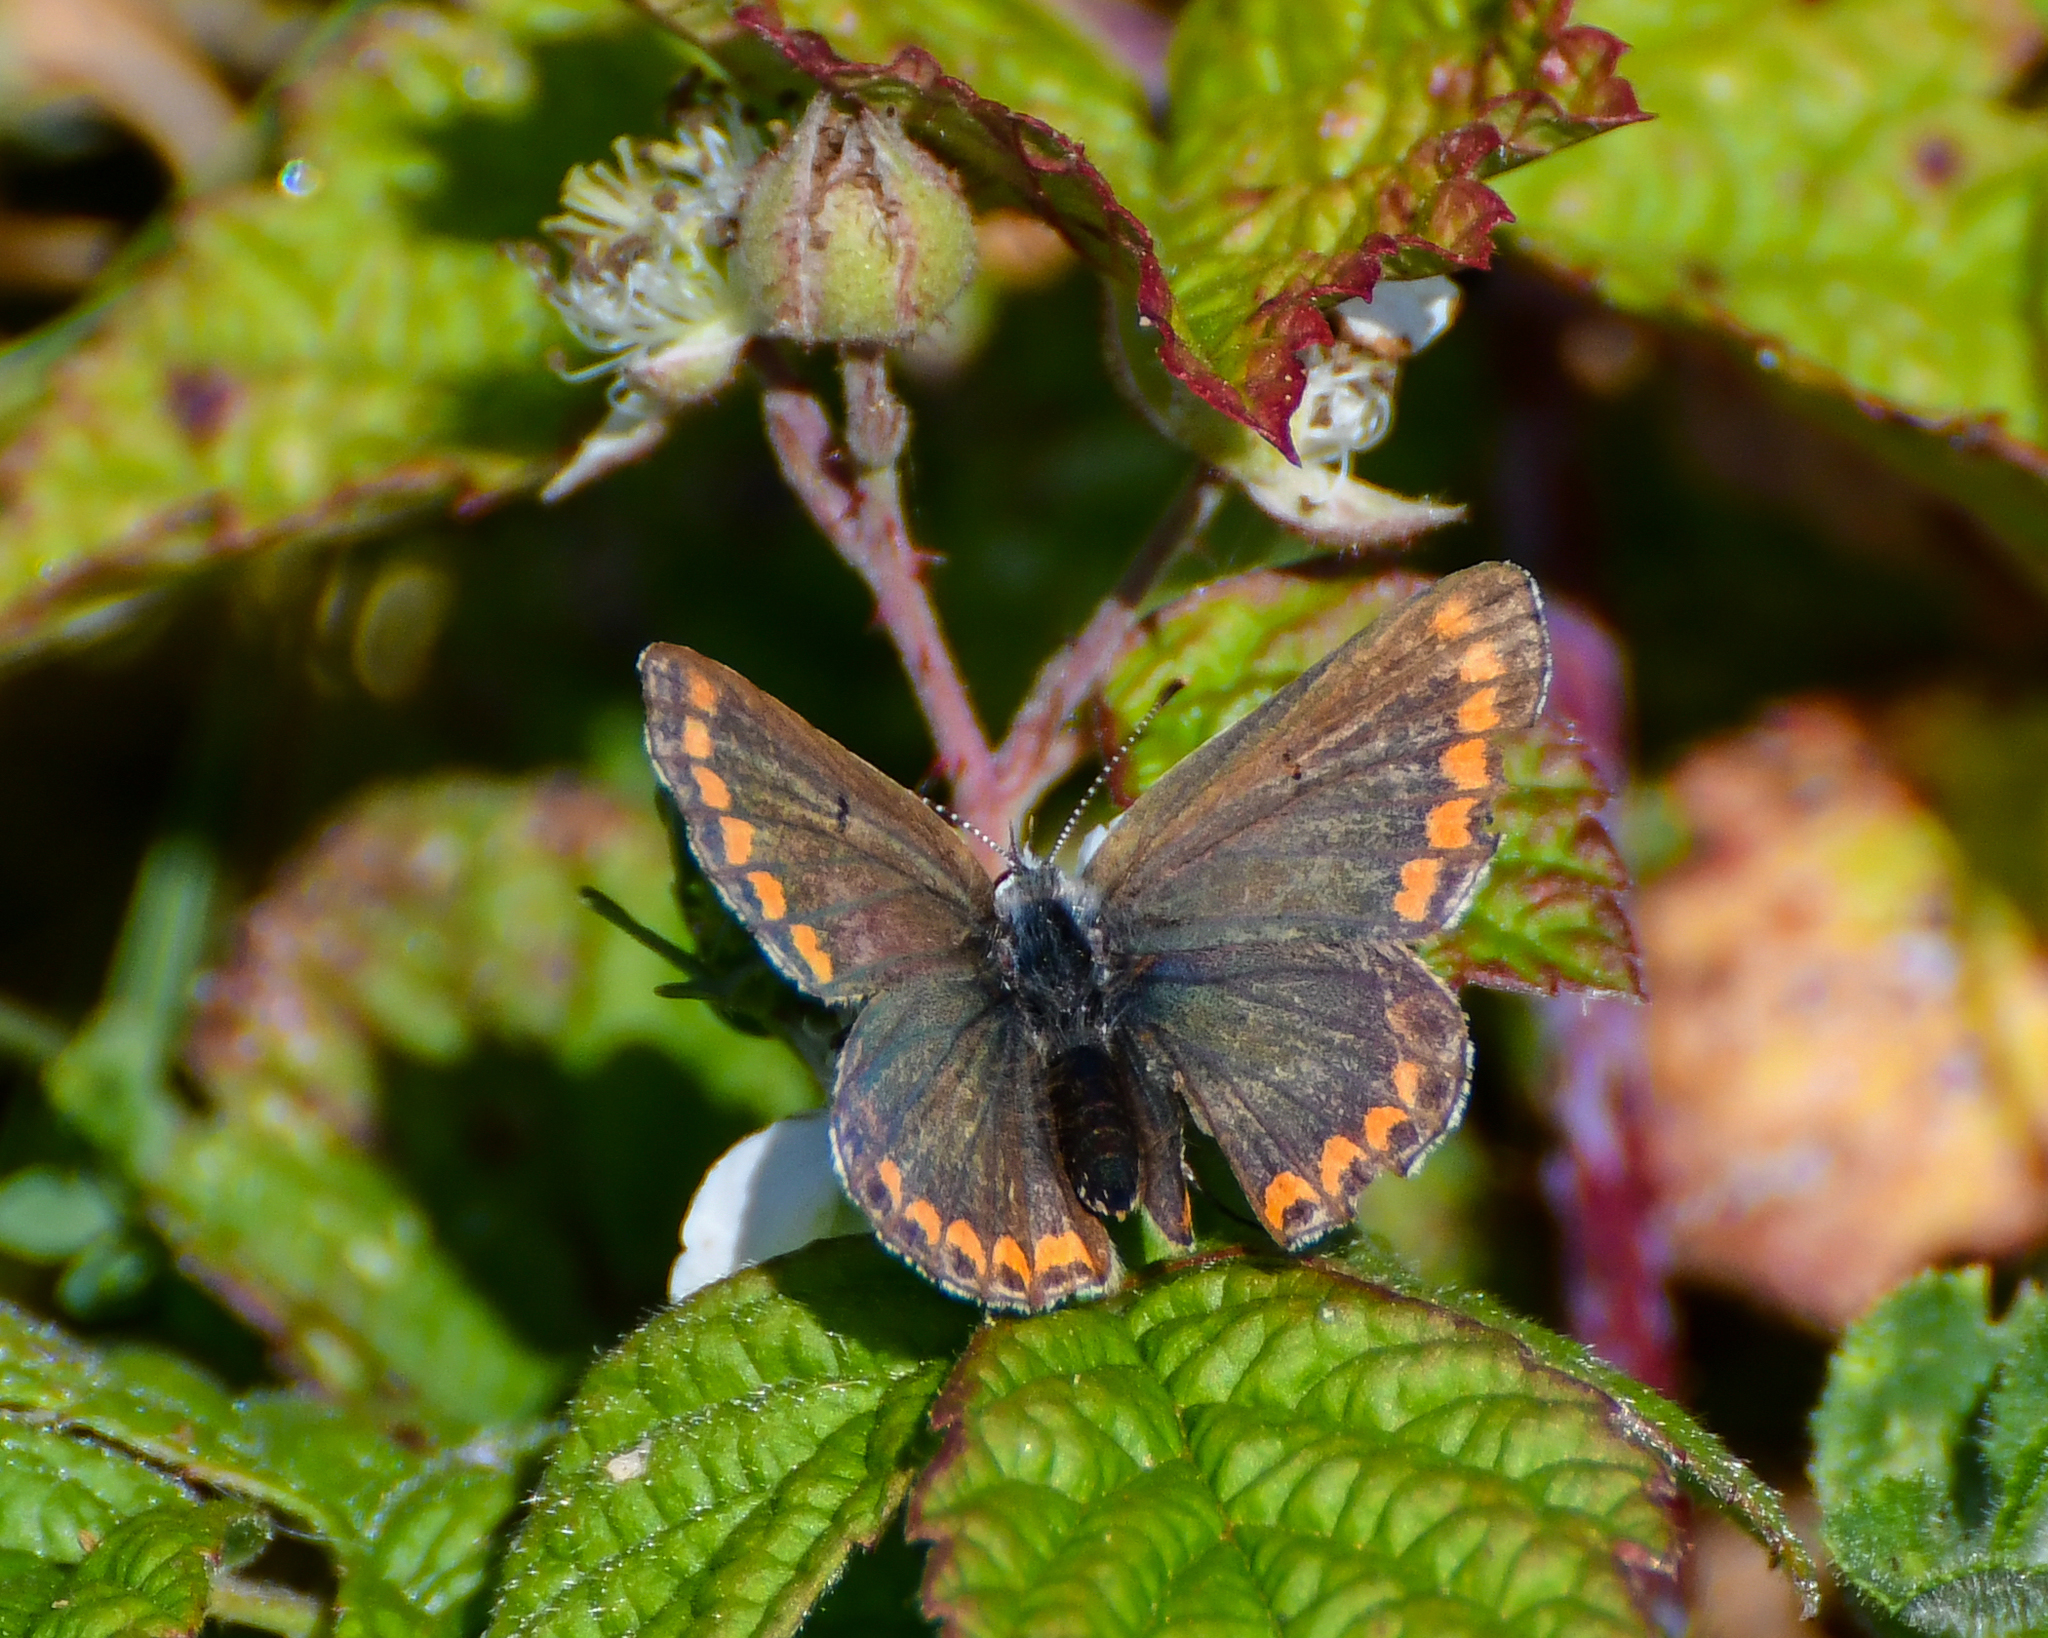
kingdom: Animalia
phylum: Arthropoda
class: Insecta
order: Lepidoptera
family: Lycaenidae
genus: Aricia
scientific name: Aricia agestis
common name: Brown argus
